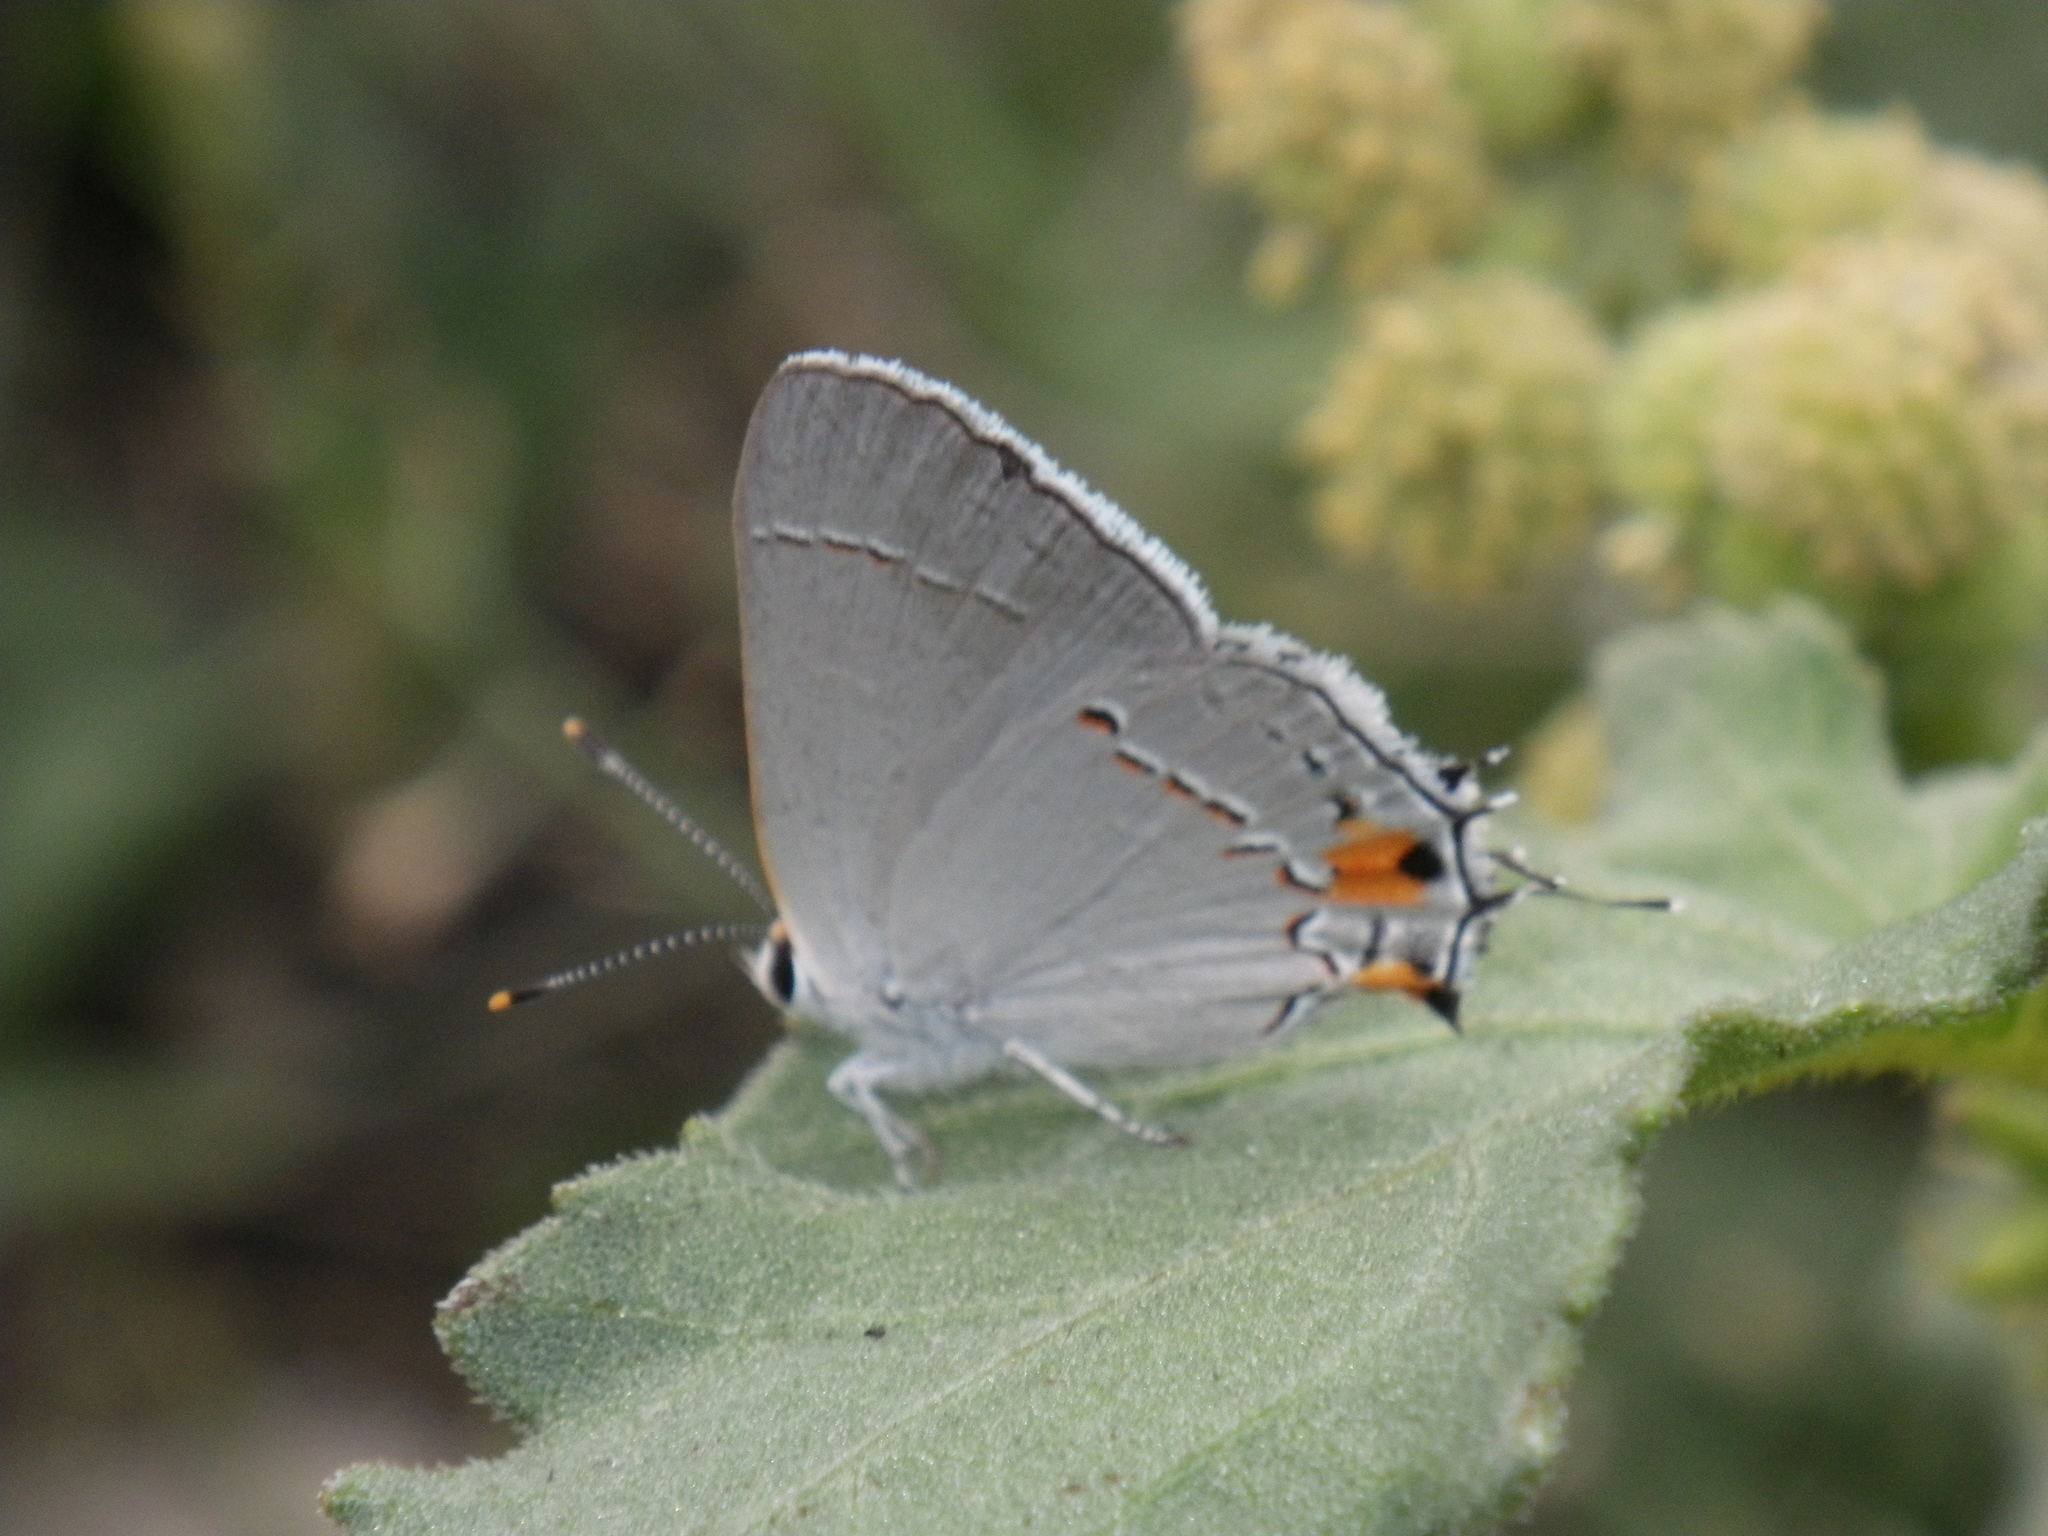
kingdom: Animalia
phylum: Arthropoda
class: Insecta
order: Lepidoptera
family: Lycaenidae
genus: Strymon
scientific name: Strymon melinus
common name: Gray hairstreak
